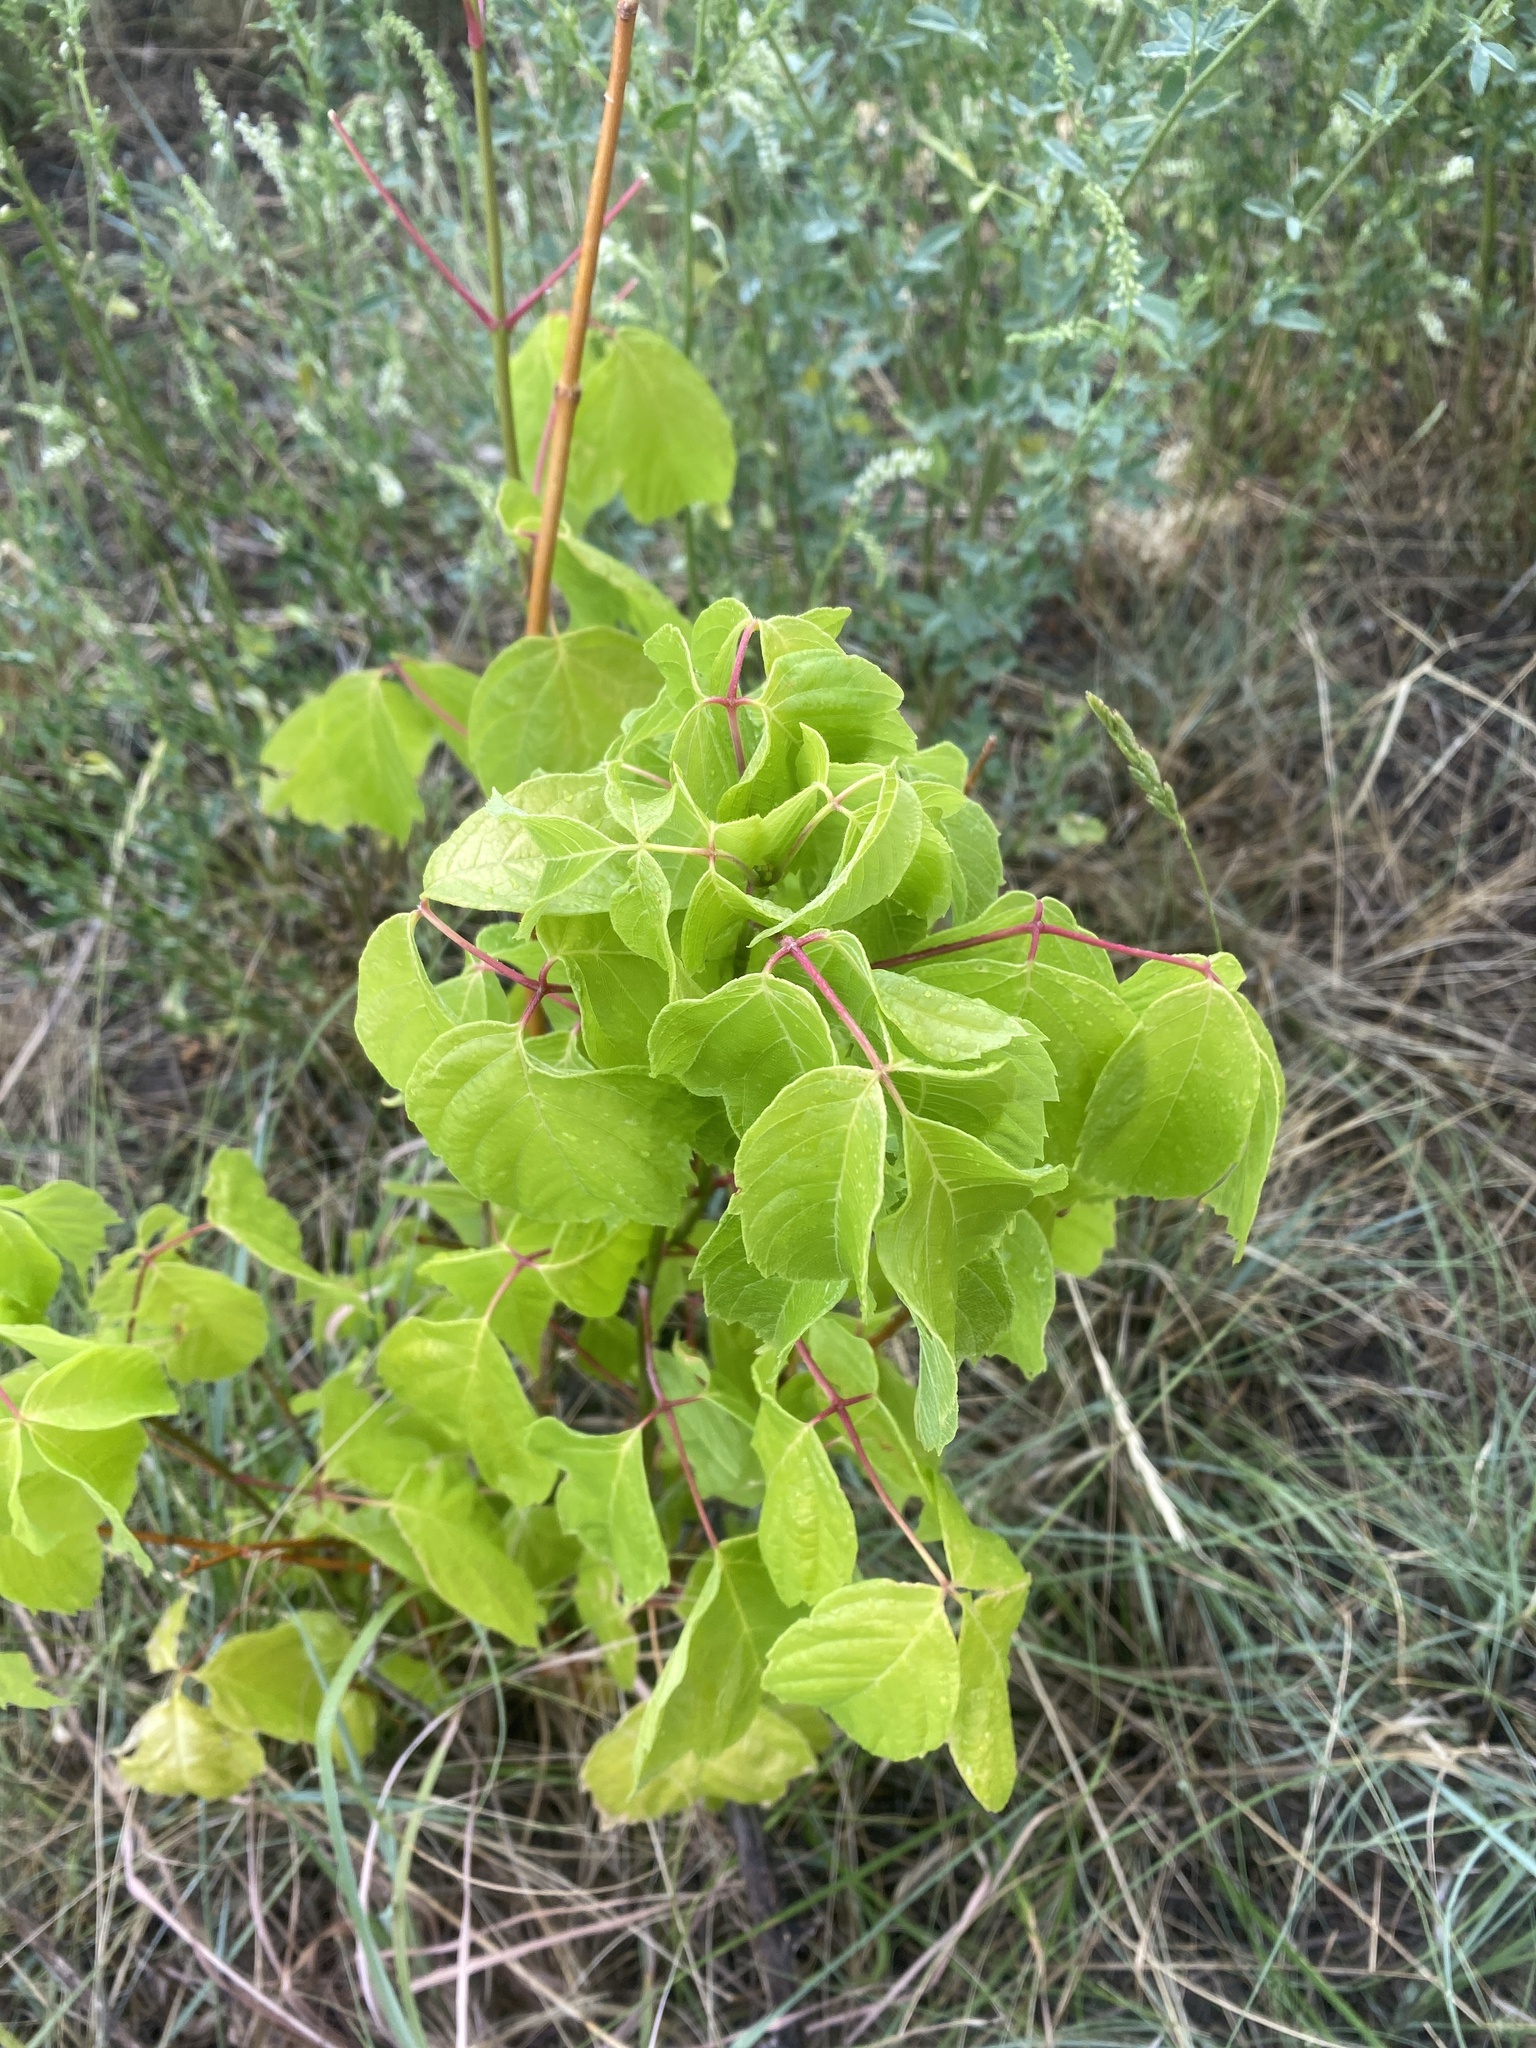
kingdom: Plantae
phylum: Tracheophyta
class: Magnoliopsida
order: Sapindales
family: Sapindaceae
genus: Acer
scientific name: Acer negundo
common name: Ashleaf maple
